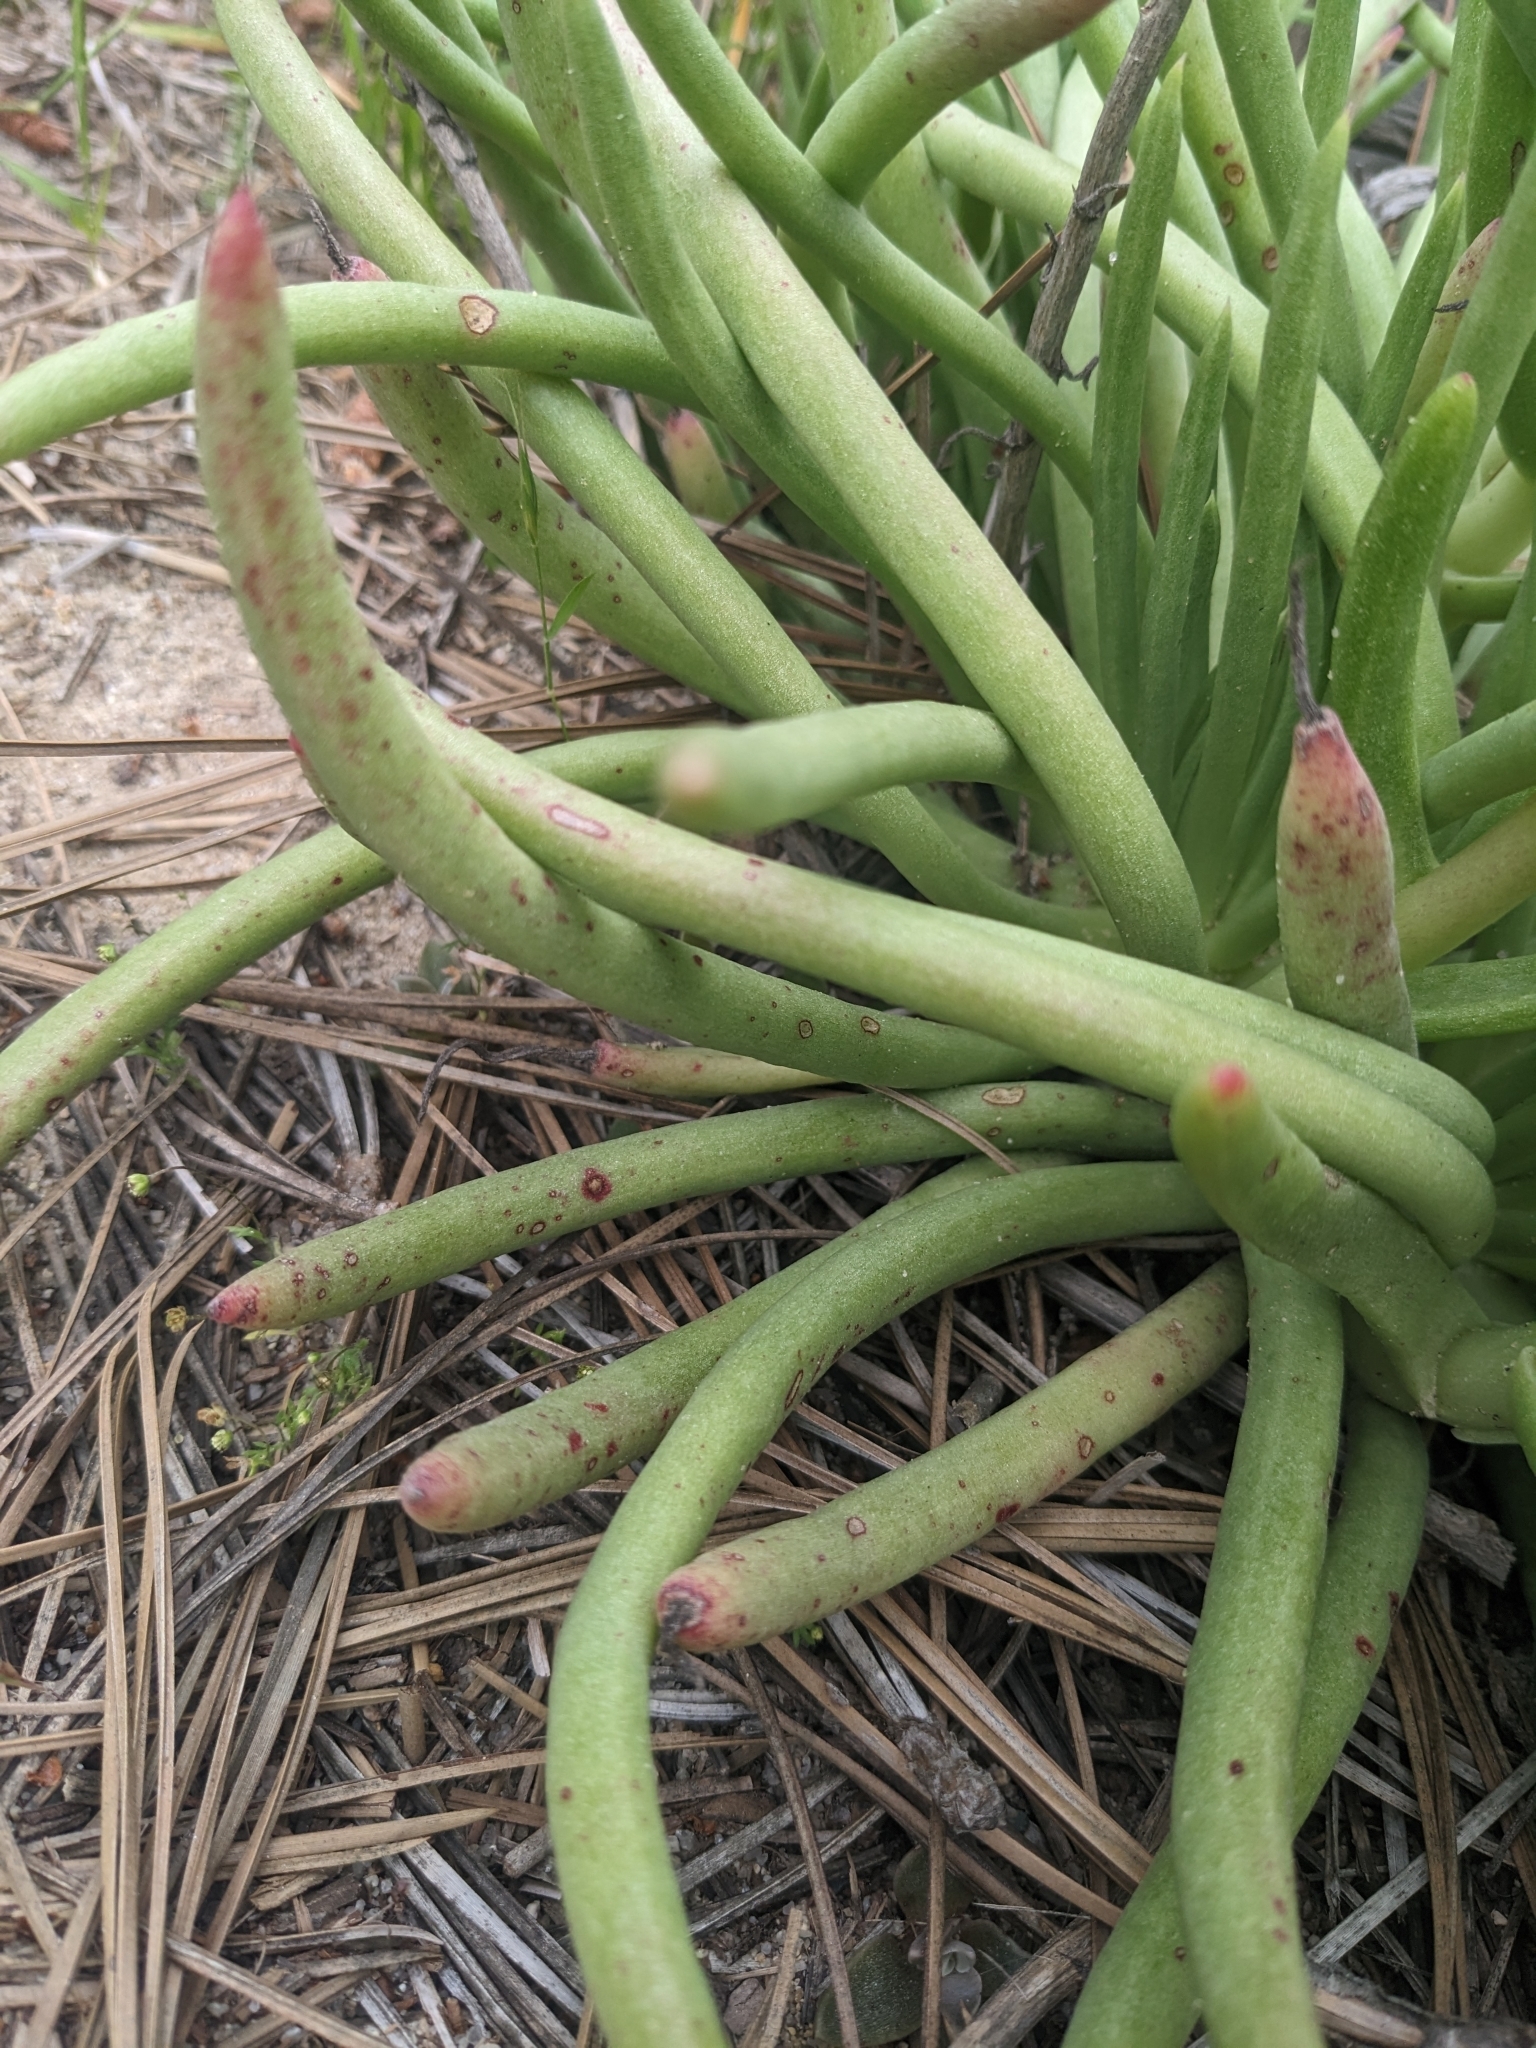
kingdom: Plantae
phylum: Tracheophyta
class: Magnoliopsida
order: Saxifragales
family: Crassulaceae
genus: Dudleya
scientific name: Dudleya edulis
